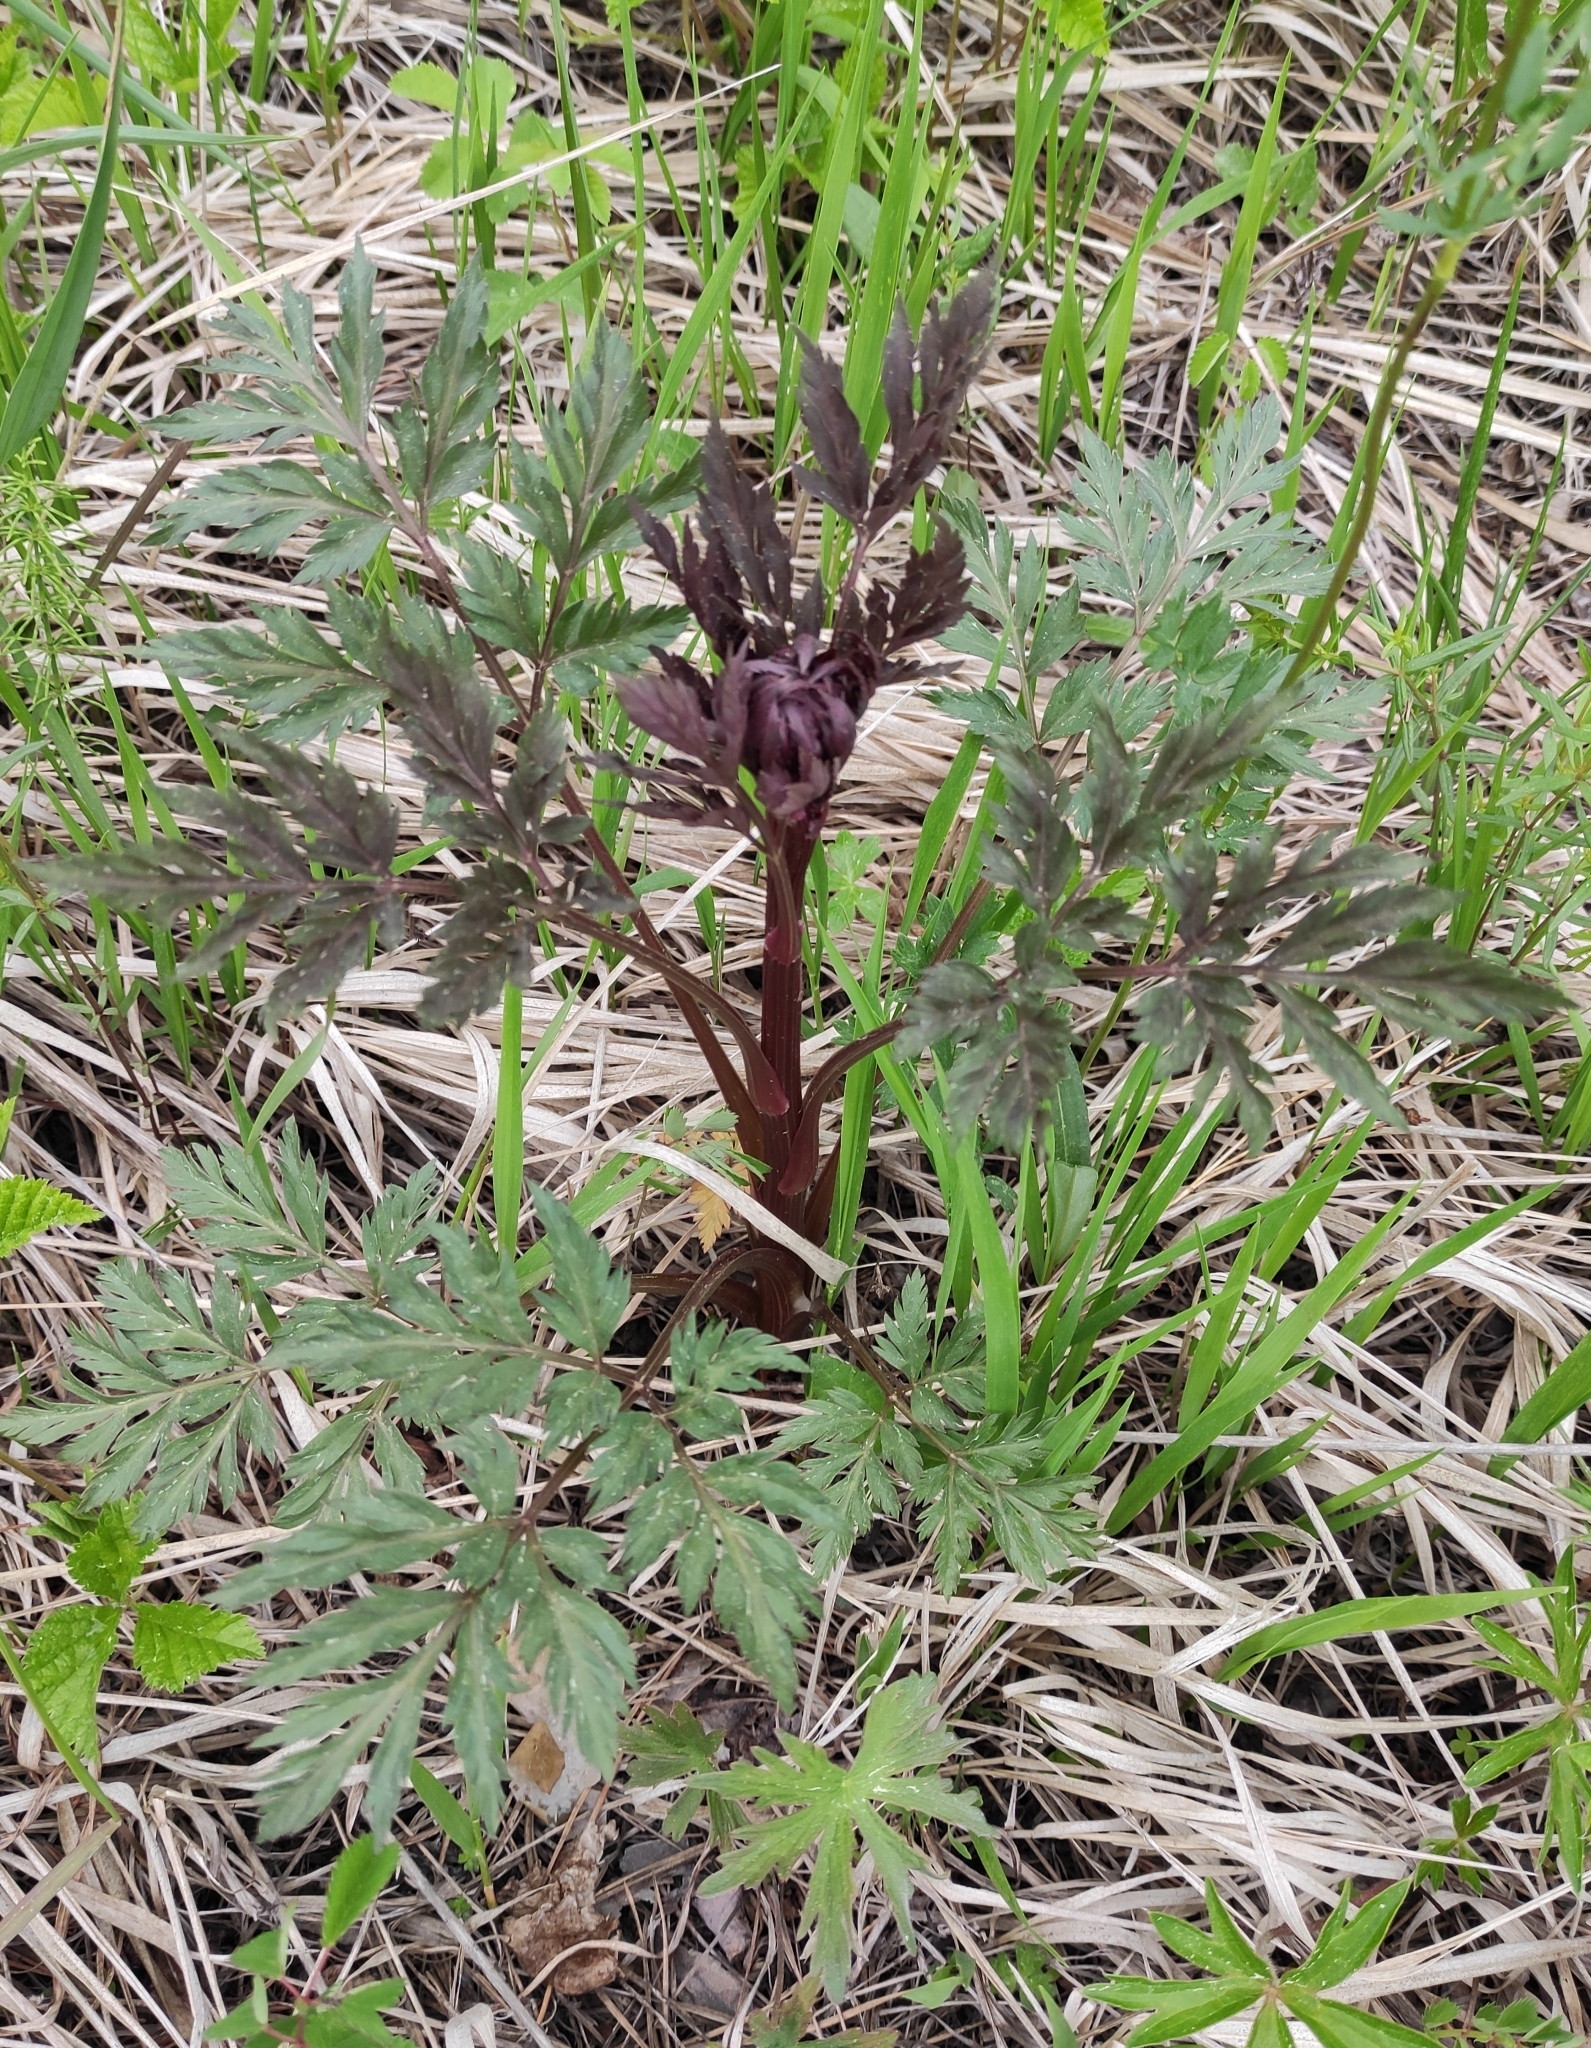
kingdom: Plantae
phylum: Tracheophyta
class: Magnoliopsida
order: Apiales
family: Apiaceae
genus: Pleurospermum
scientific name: Pleurospermum uralense
